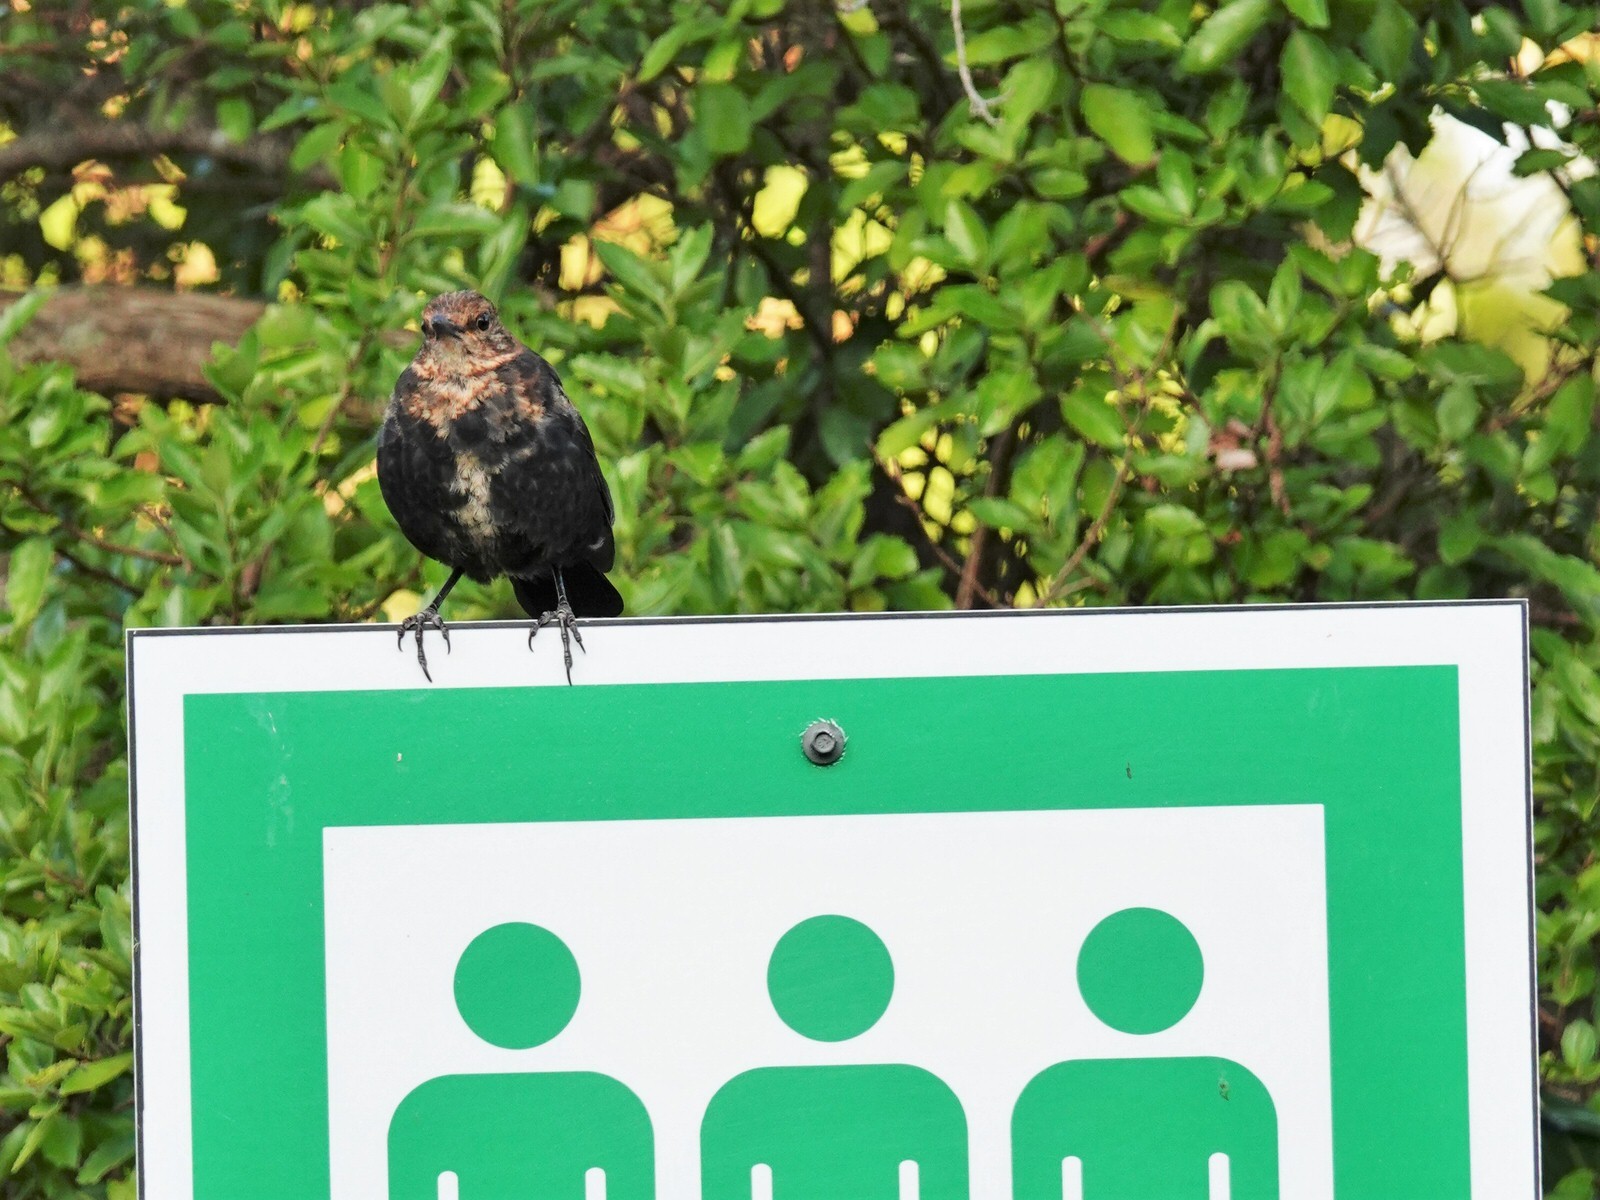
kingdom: Animalia
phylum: Chordata
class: Aves
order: Passeriformes
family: Turdidae
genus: Turdus
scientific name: Turdus merula
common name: Common blackbird
